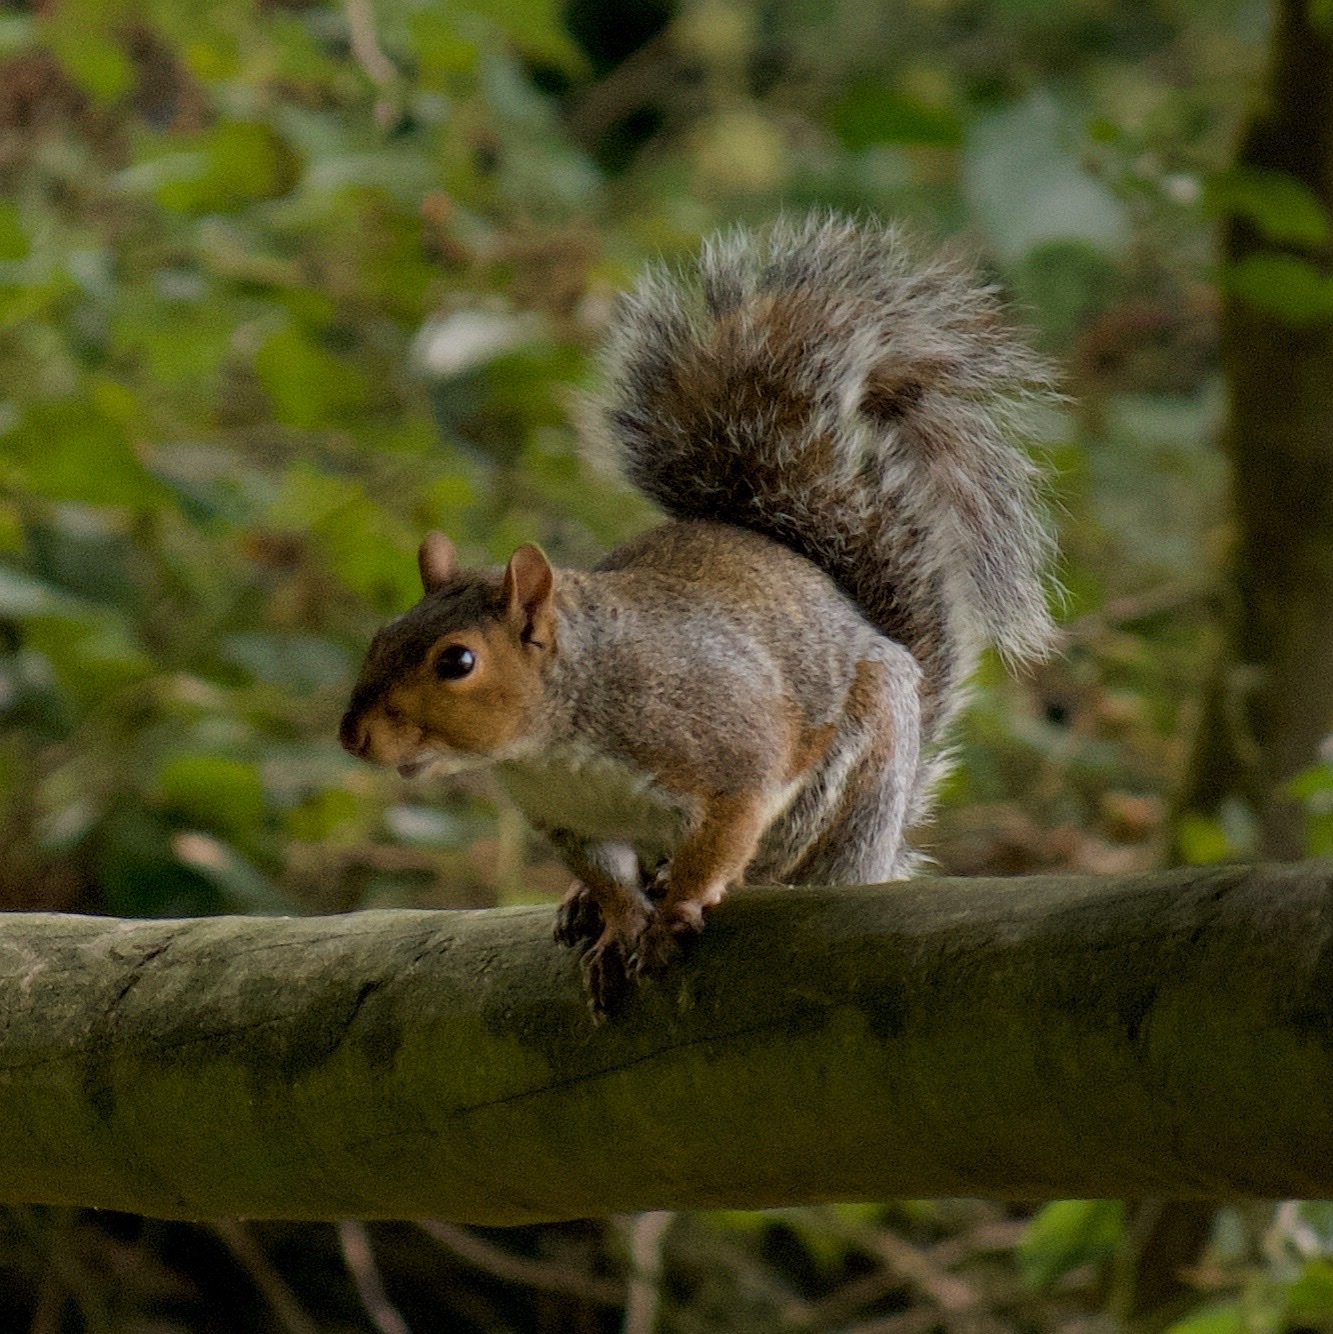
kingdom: Animalia
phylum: Chordata
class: Mammalia
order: Rodentia
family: Sciuridae
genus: Sciurus
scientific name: Sciurus carolinensis
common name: Eastern gray squirrel
